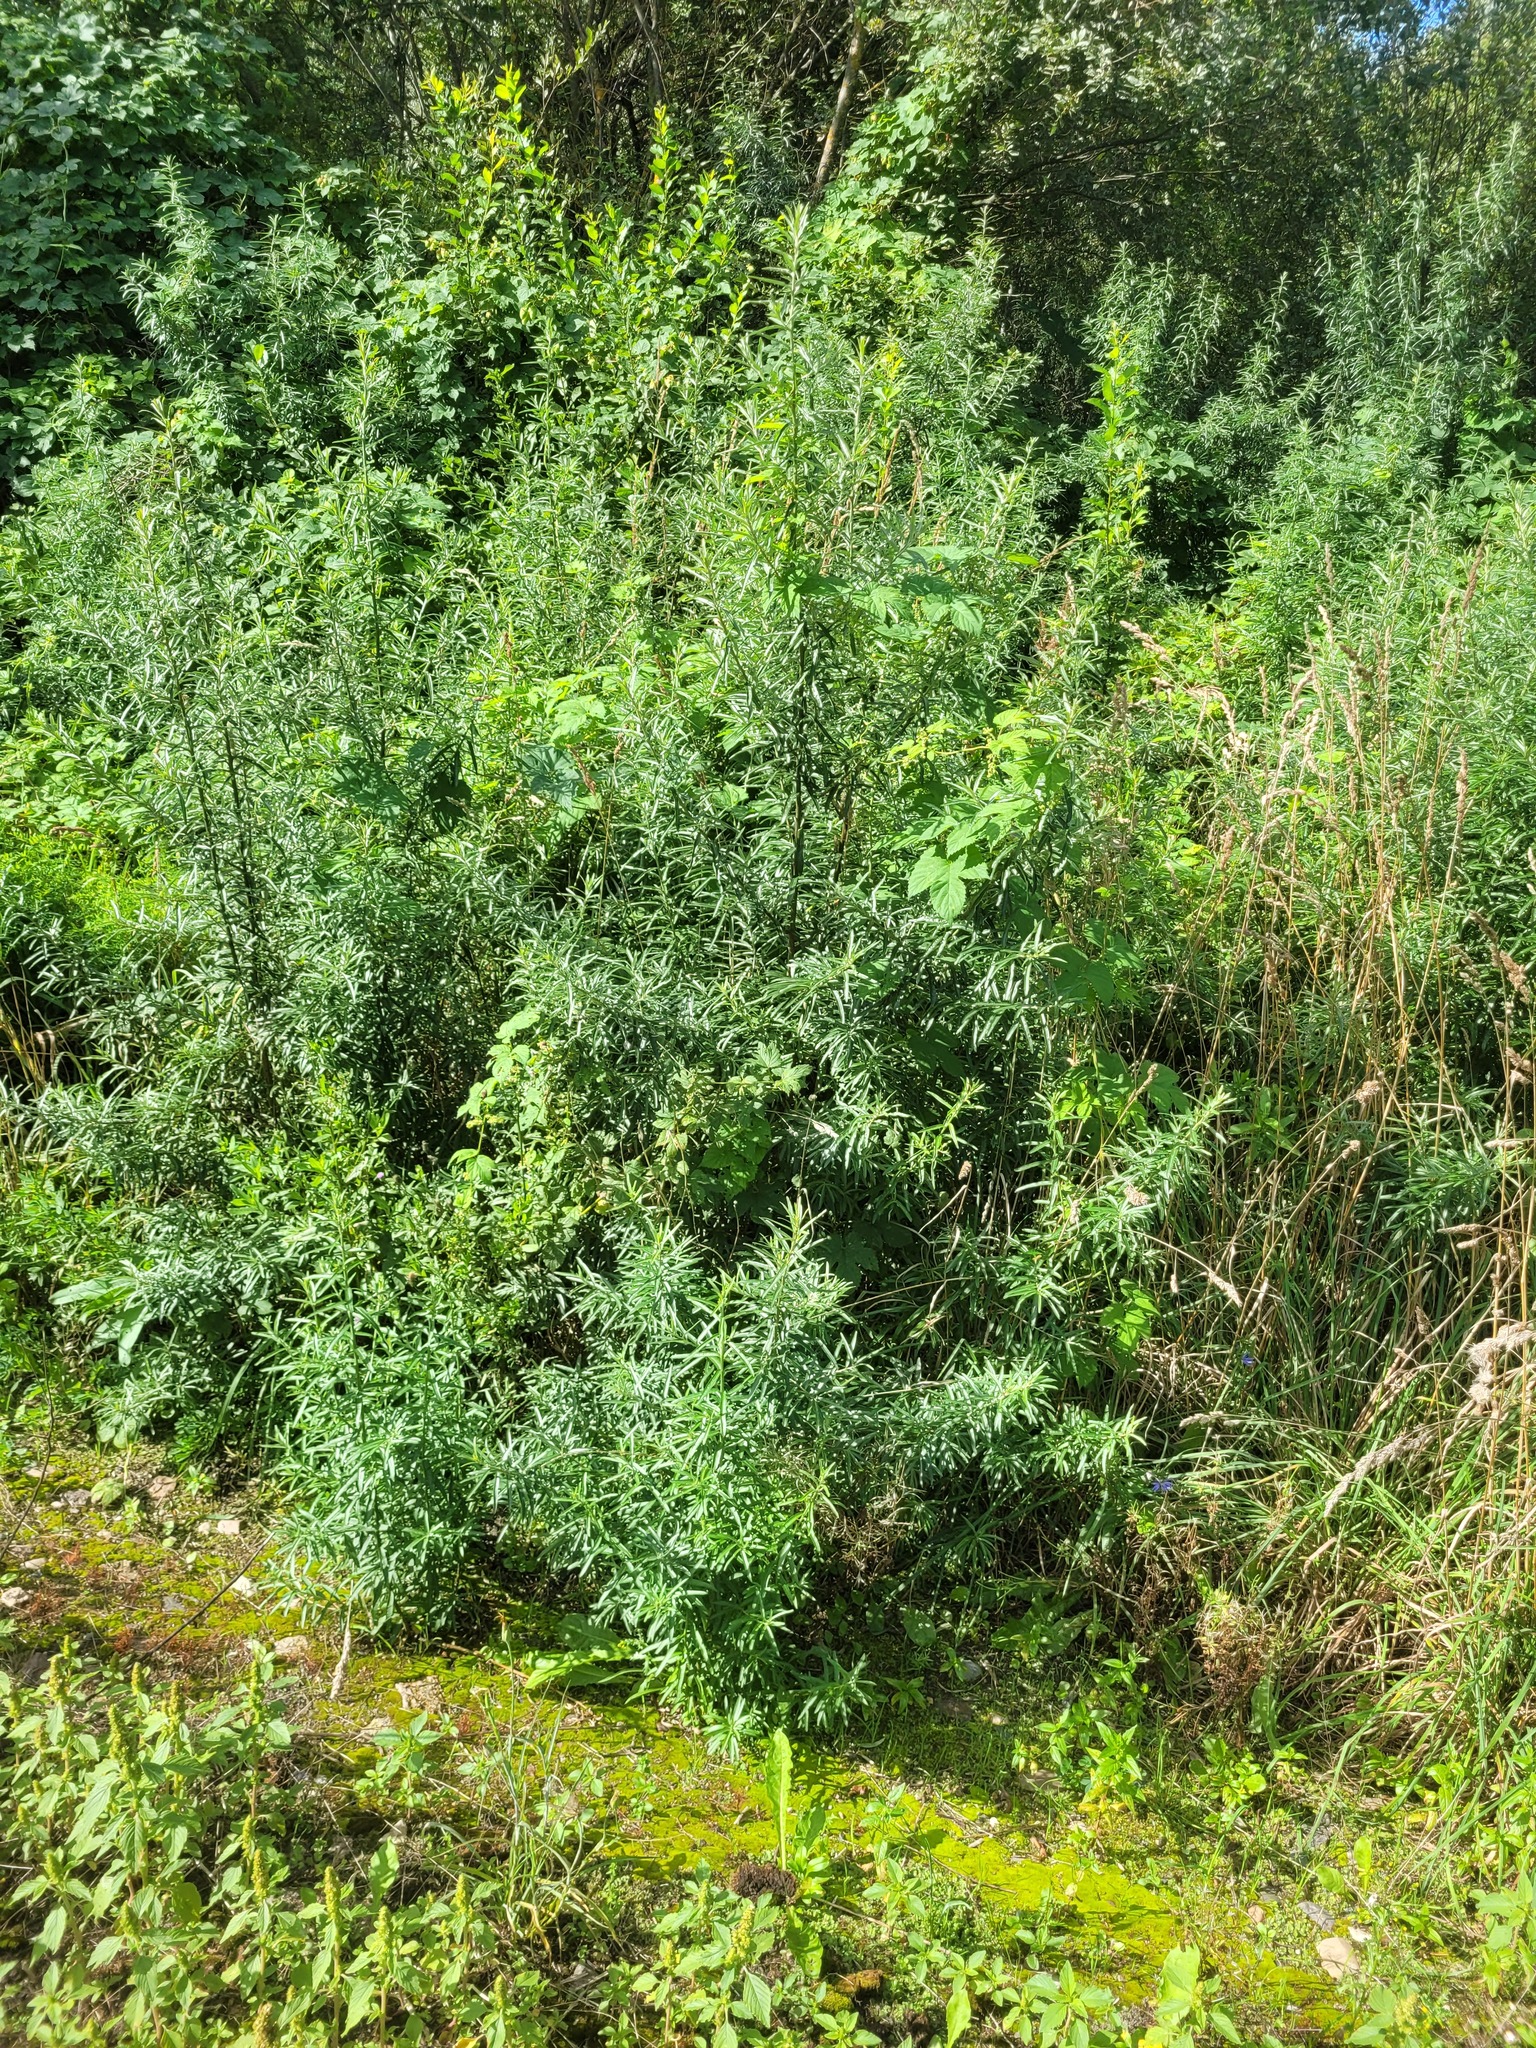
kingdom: Plantae
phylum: Tracheophyta
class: Magnoliopsida
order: Rosales
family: Elaeagnaceae
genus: Hippophae
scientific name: Hippophae rhamnoides
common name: Sea-buckthorn
